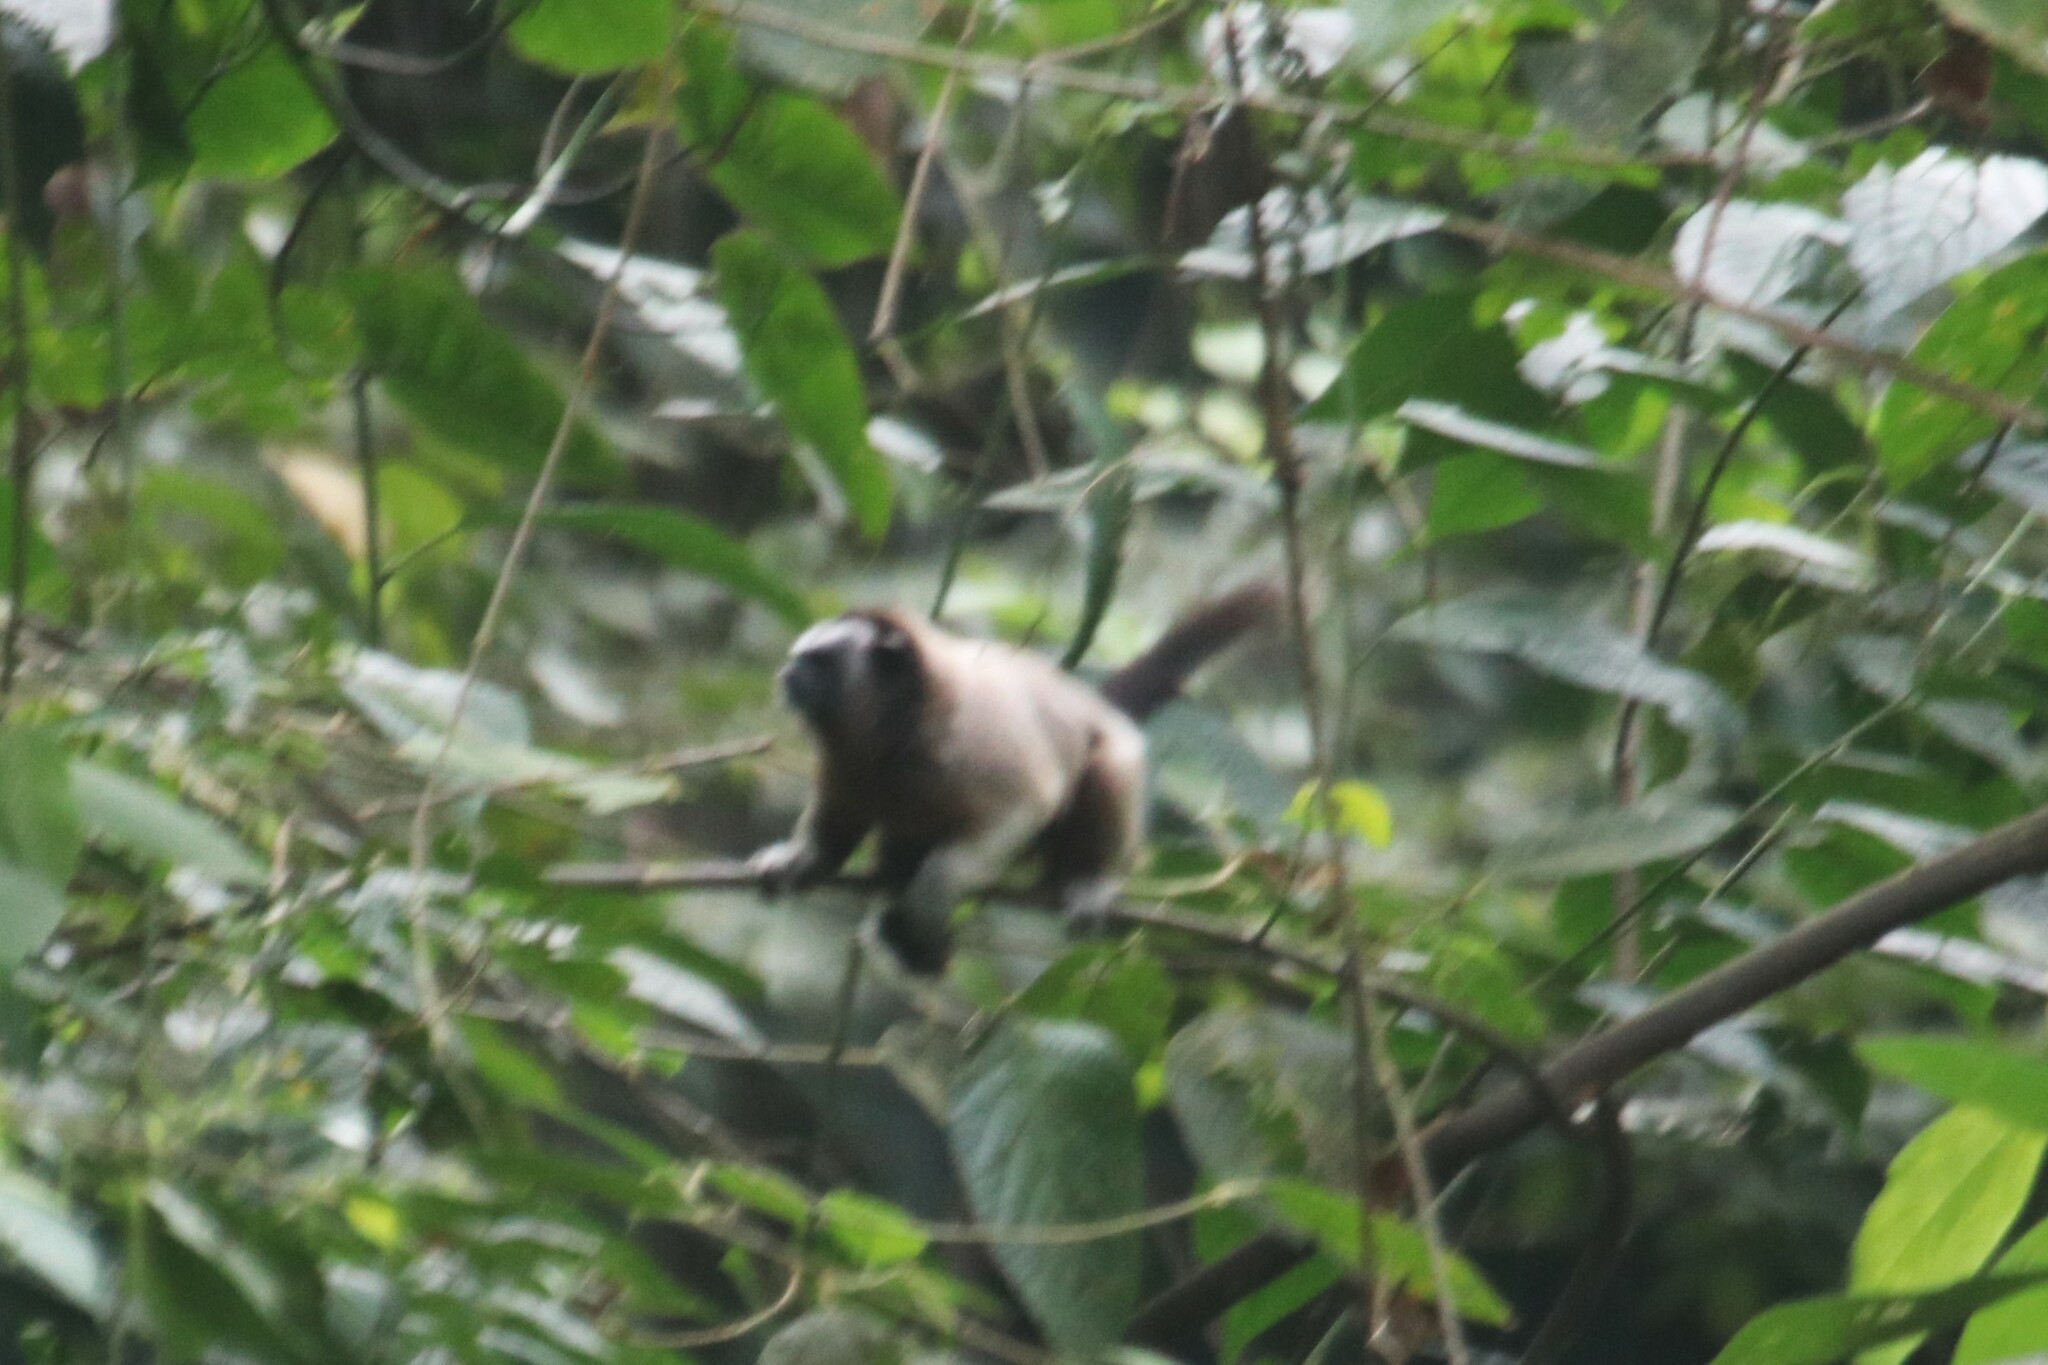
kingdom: Animalia
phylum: Chordata
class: Mammalia
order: Primates
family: Callitrichidae
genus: Saguinus
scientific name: Saguinus leucopus
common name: White-footed tamarin
